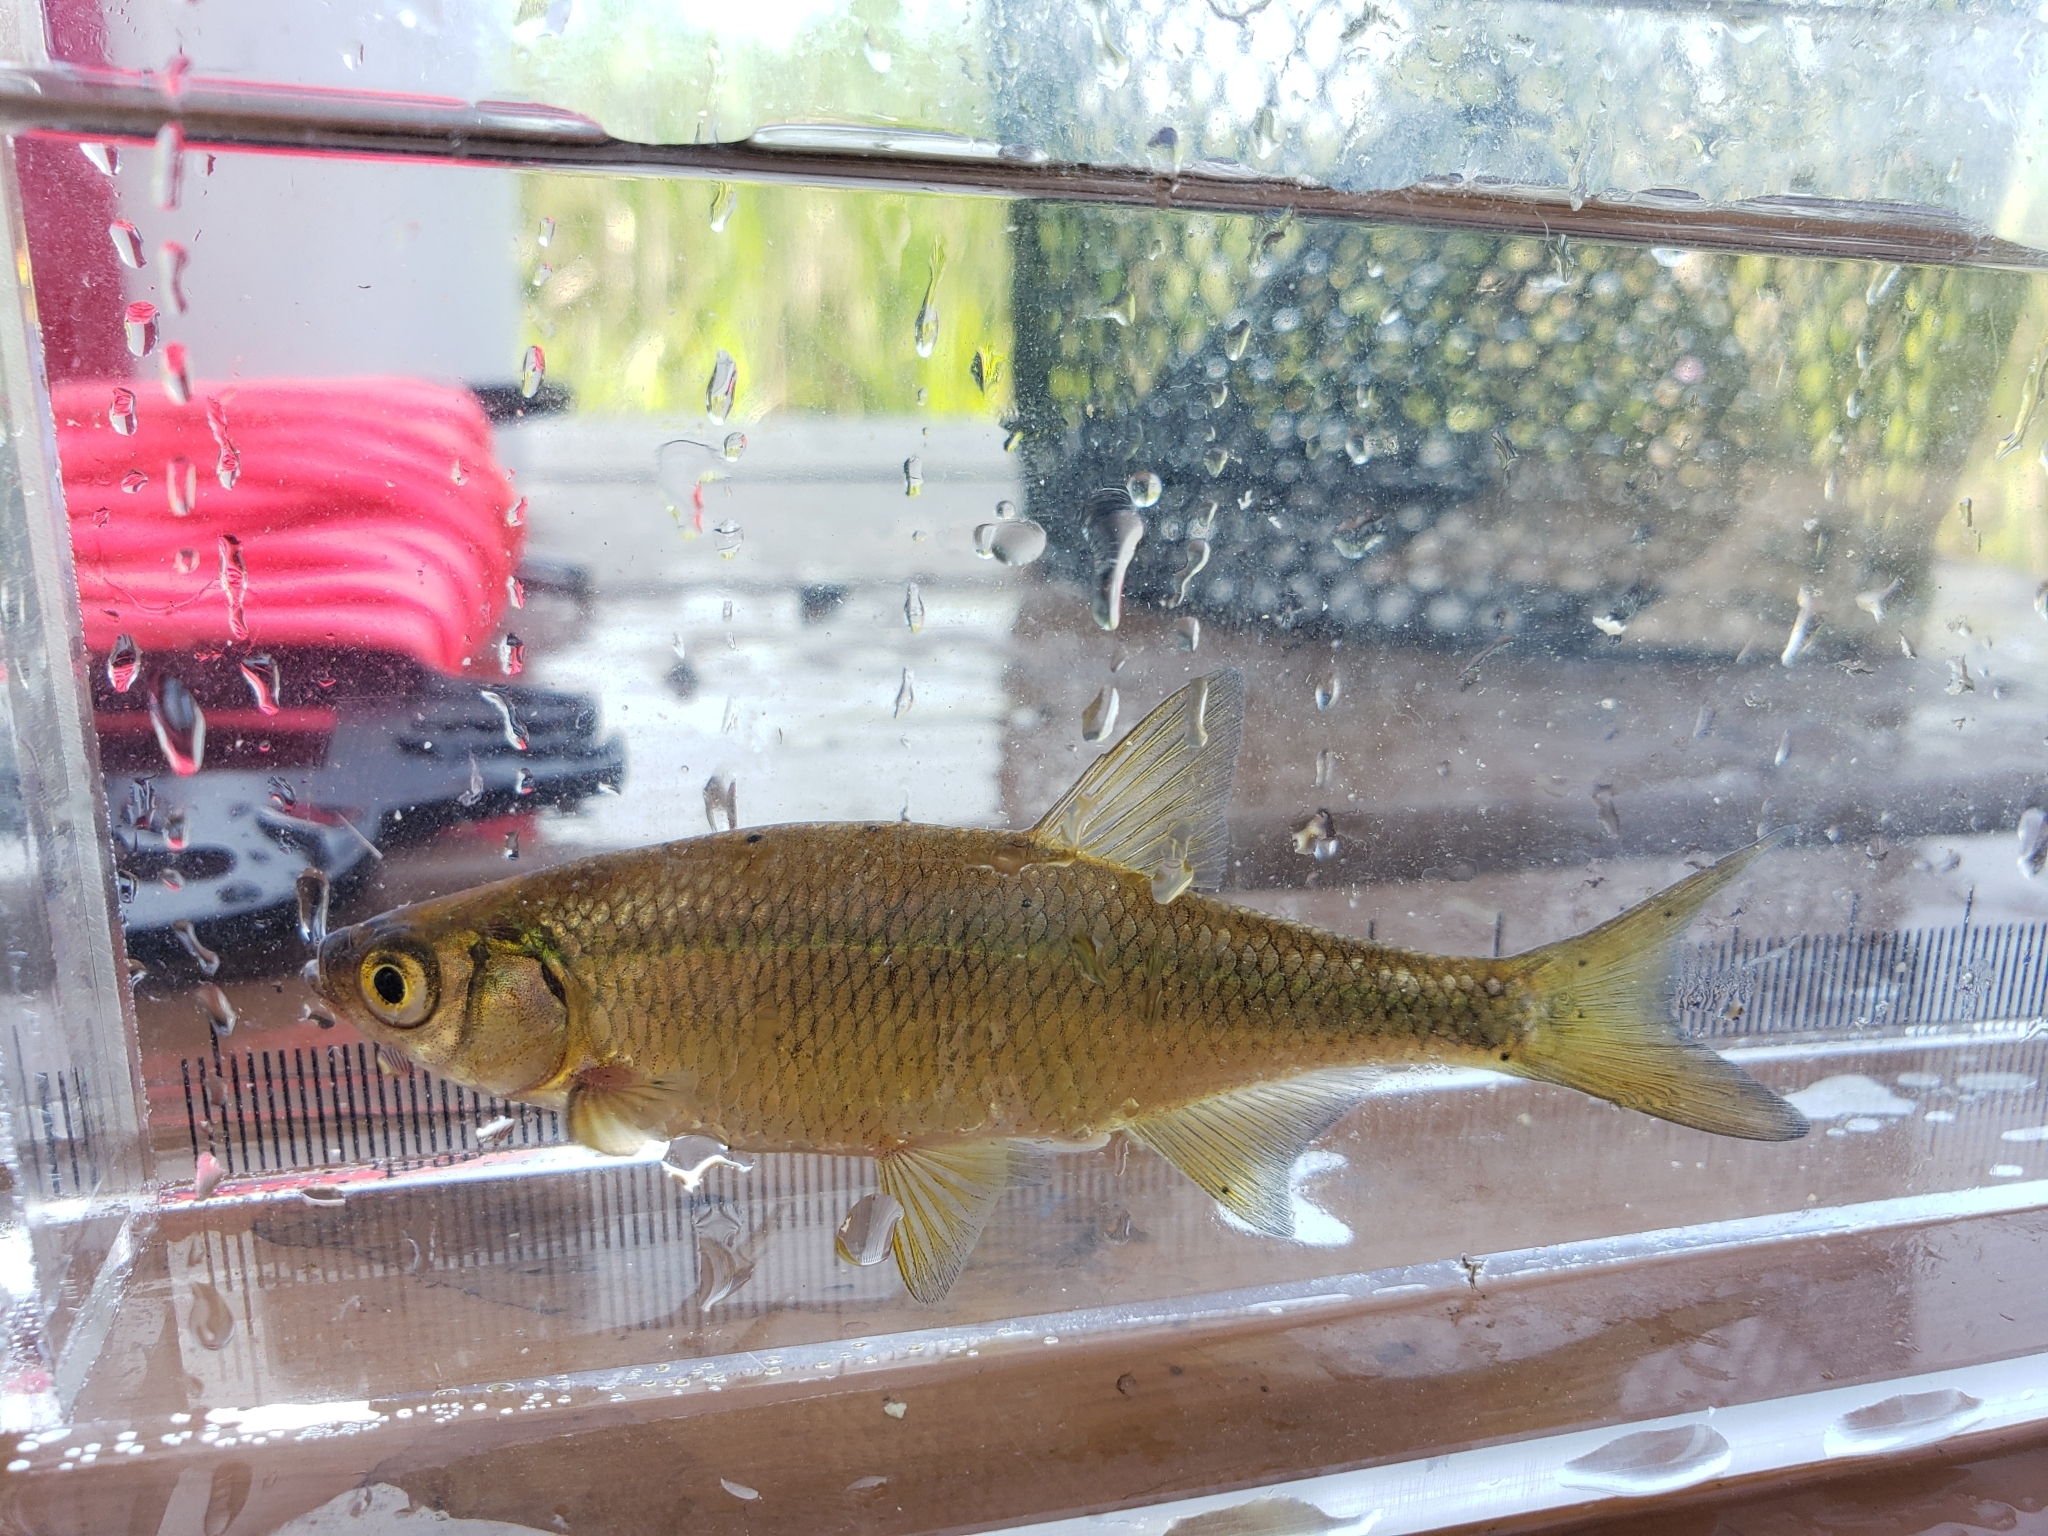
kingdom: Animalia
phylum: Chordata
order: Cypriniformes
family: Cyprinidae
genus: Notemigonus
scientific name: Notemigonus crysoleucas
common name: Golden shiner
